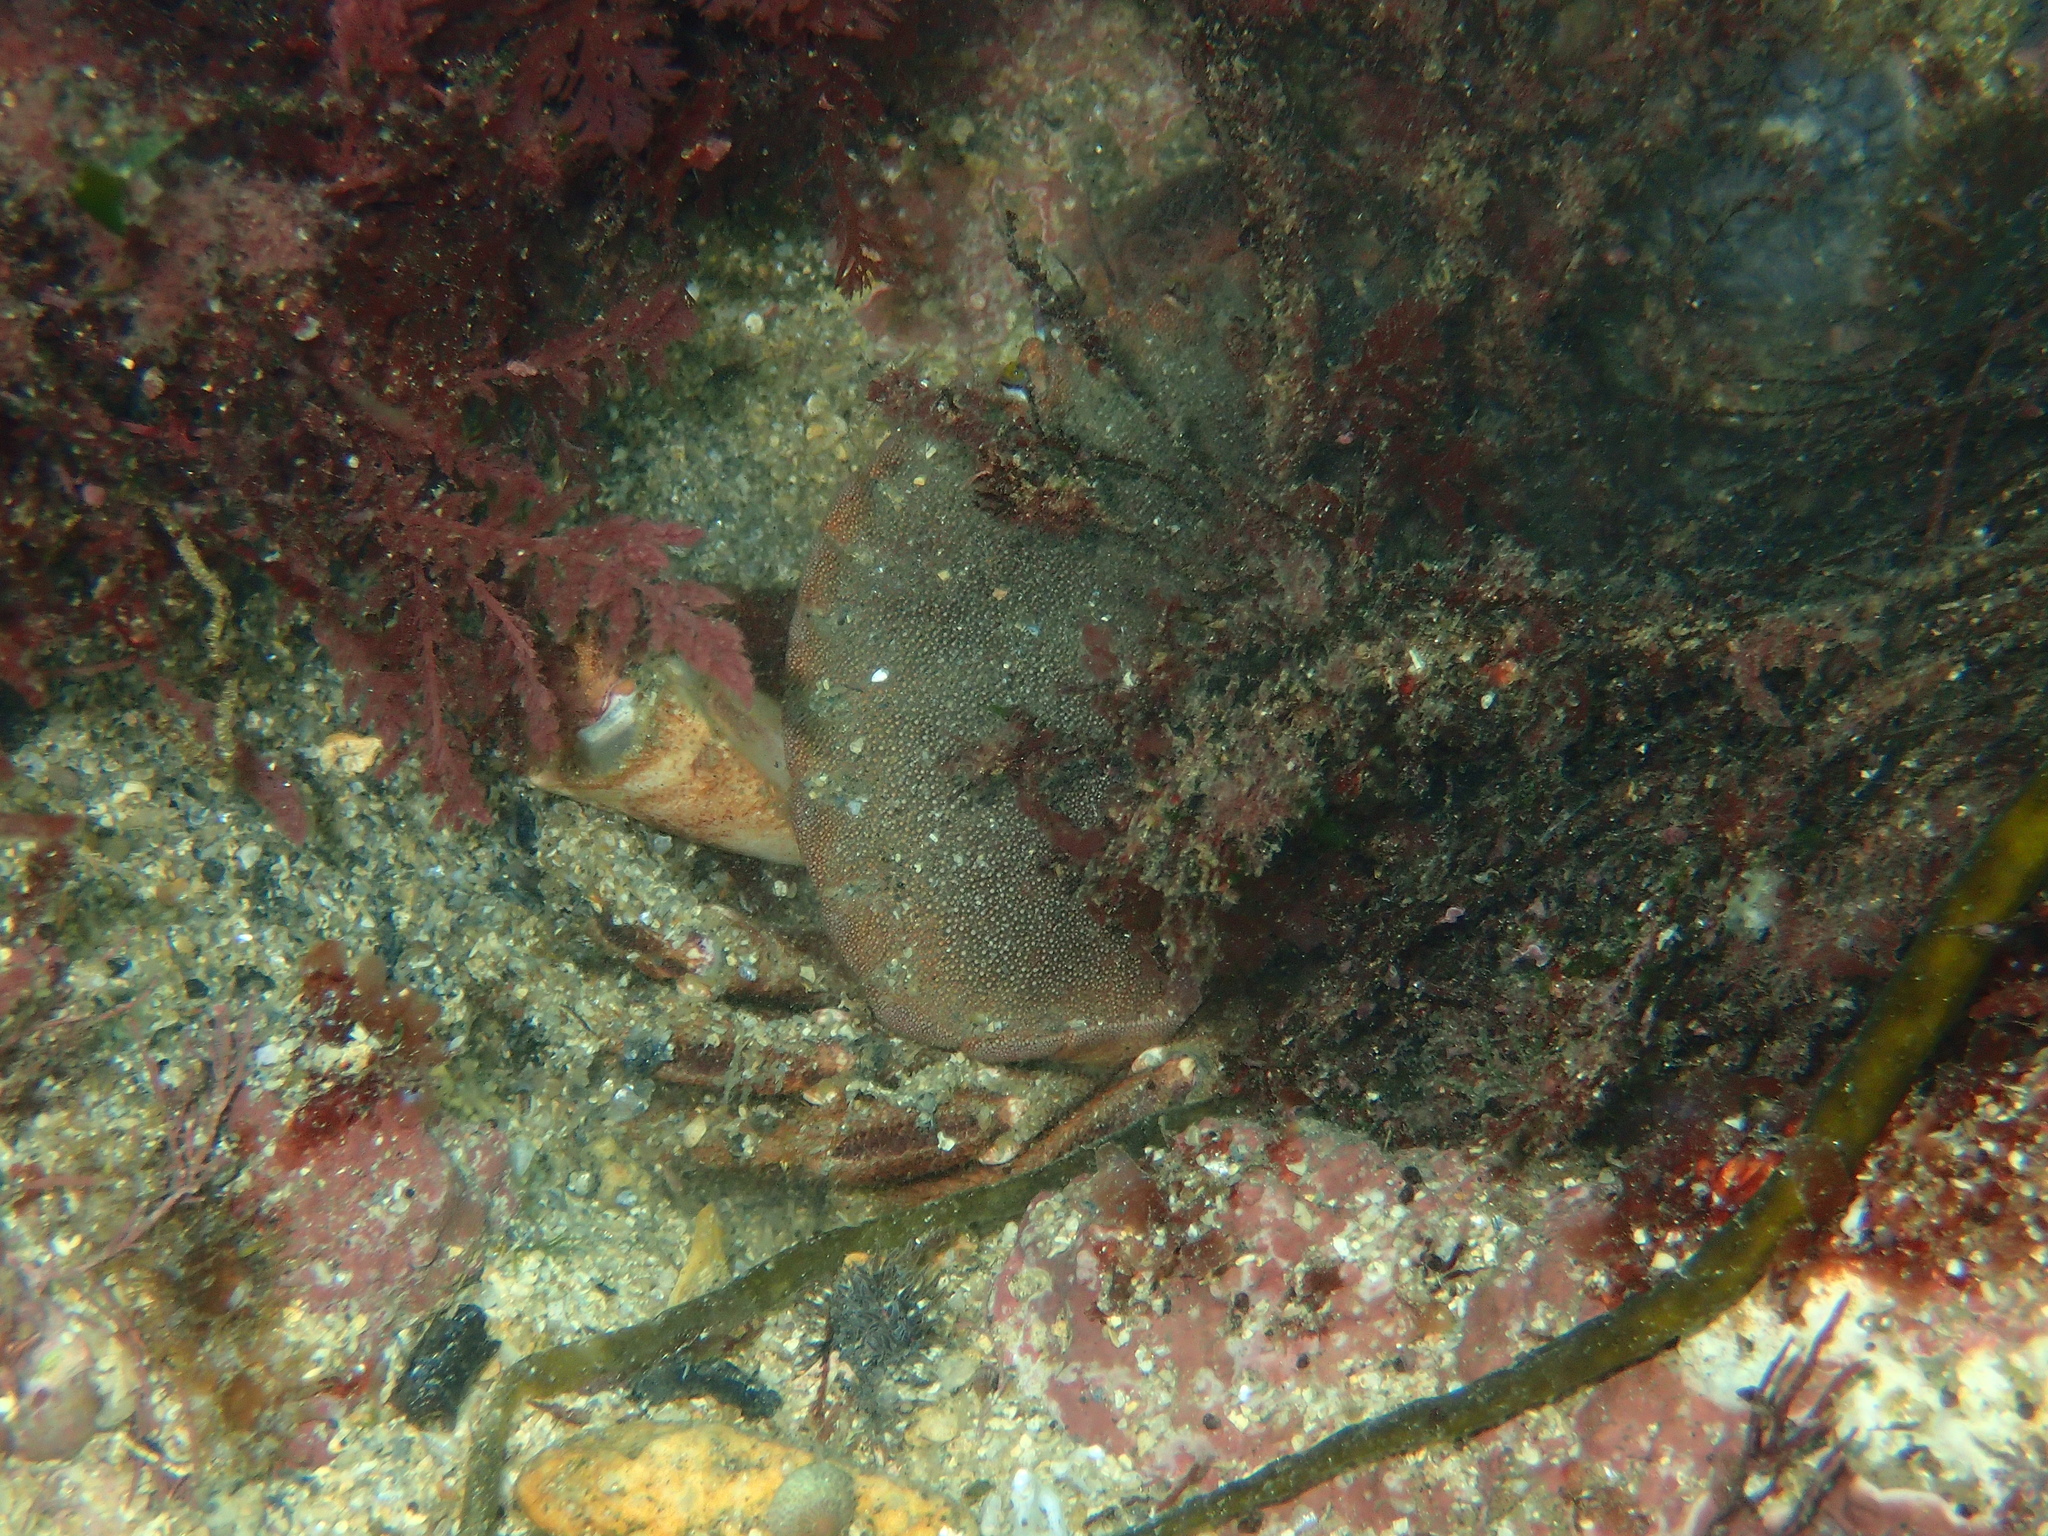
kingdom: Animalia
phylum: Arthropoda
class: Malacostraca
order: Decapoda
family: Cancridae
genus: Cancer
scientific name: Cancer pagurus
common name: Edible crab
